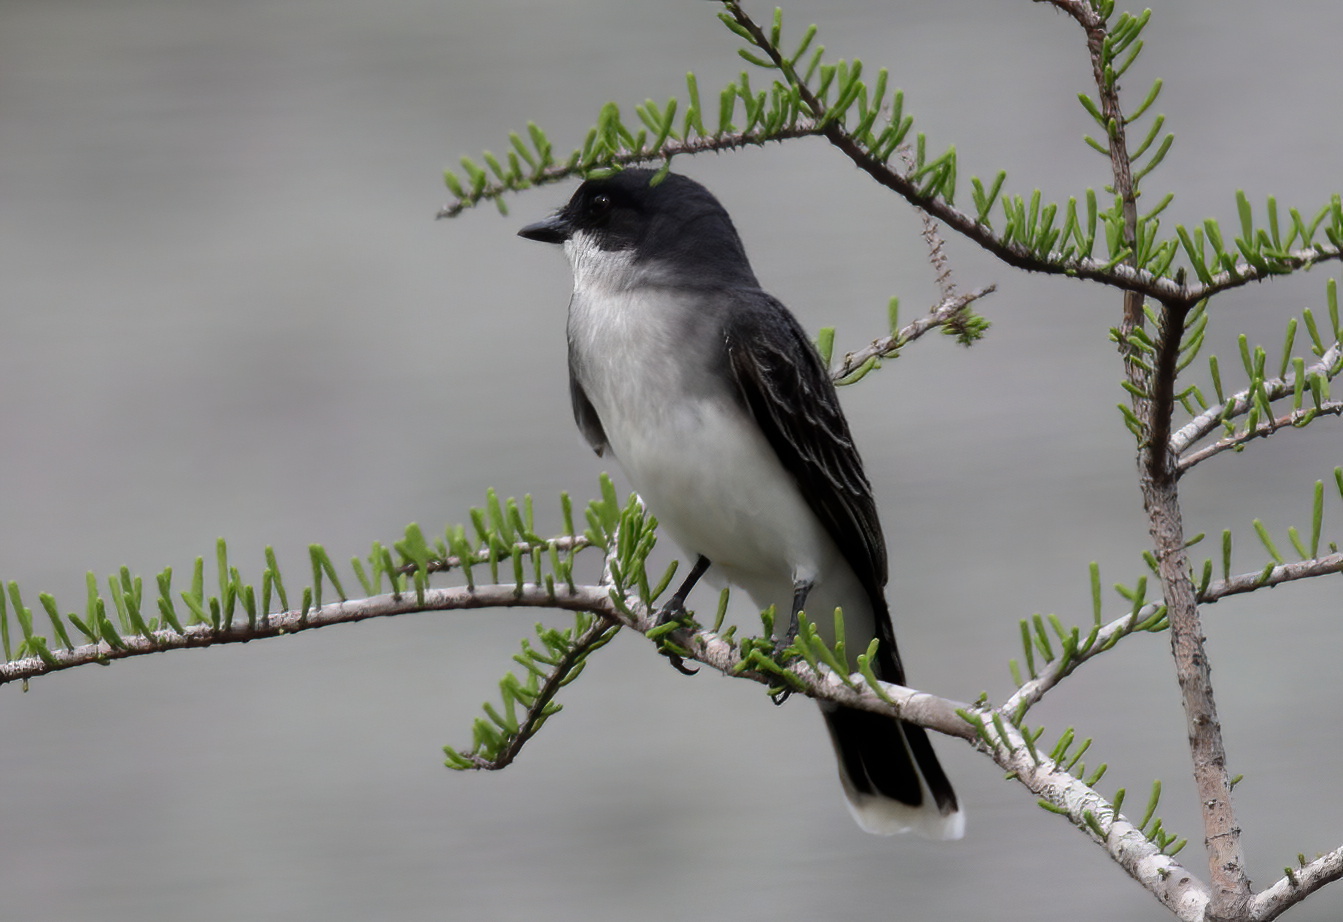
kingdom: Animalia
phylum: Chordata
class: Aves
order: Passeriformes
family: Tyrannidae
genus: Tyrannus
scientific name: Tyrannus tyrannus
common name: Eastern kingbird
